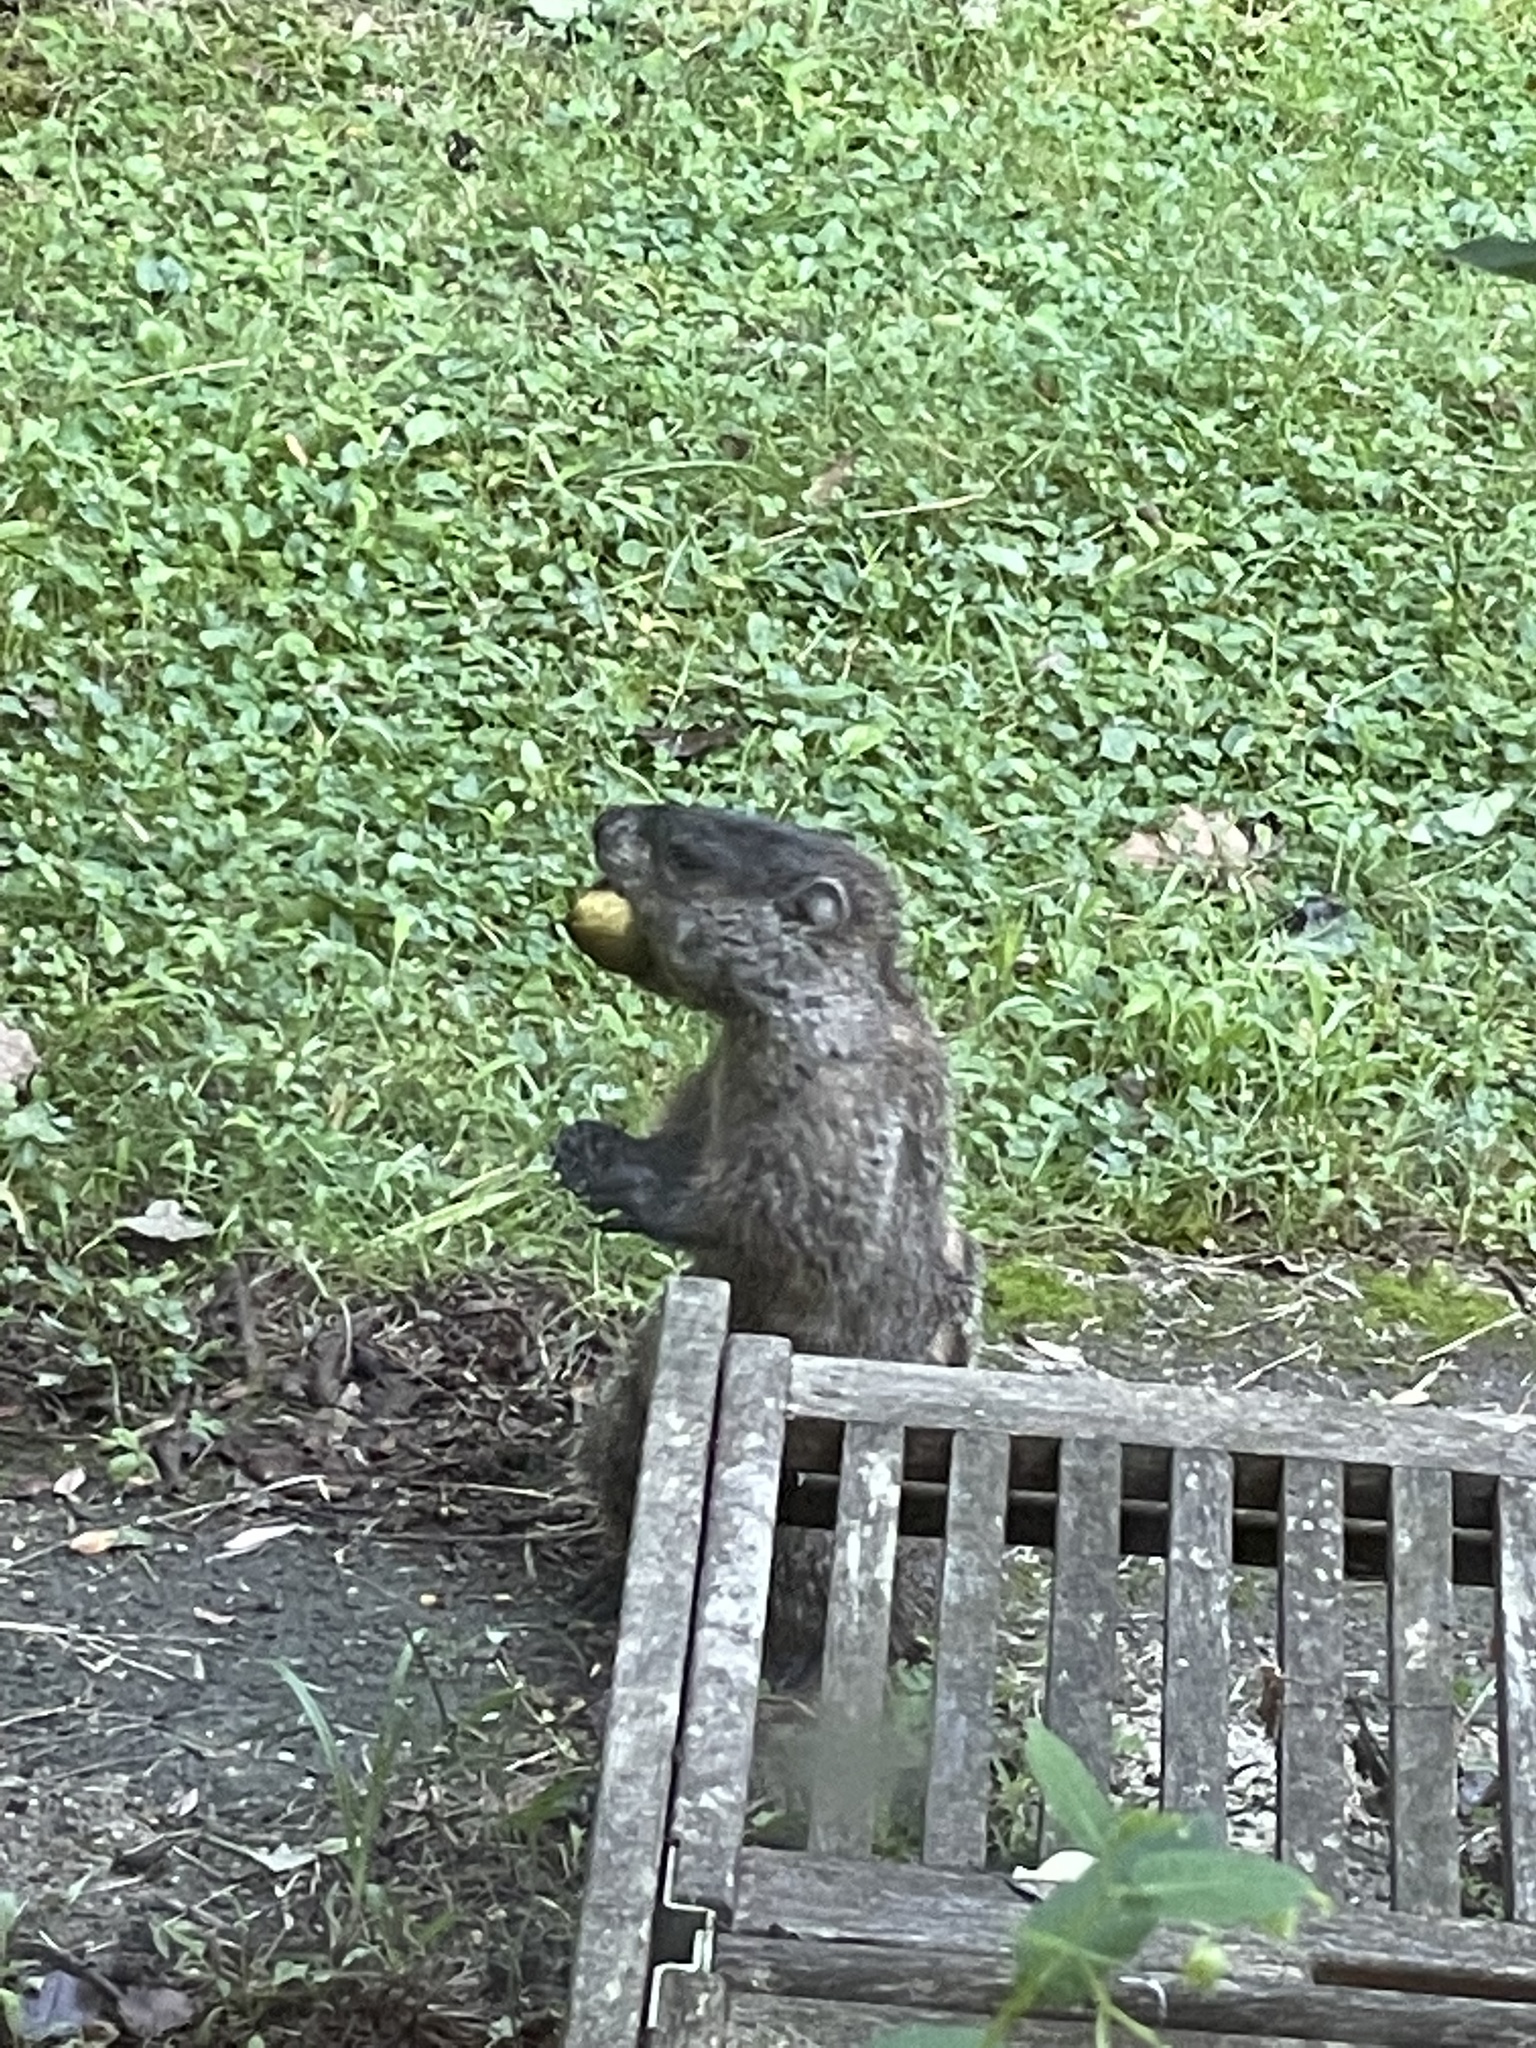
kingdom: Animalia
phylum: Chordata
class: Mammalia
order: Rodentia
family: Sciuridae
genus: Marmota
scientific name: Marmota monax
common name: Groundhog
